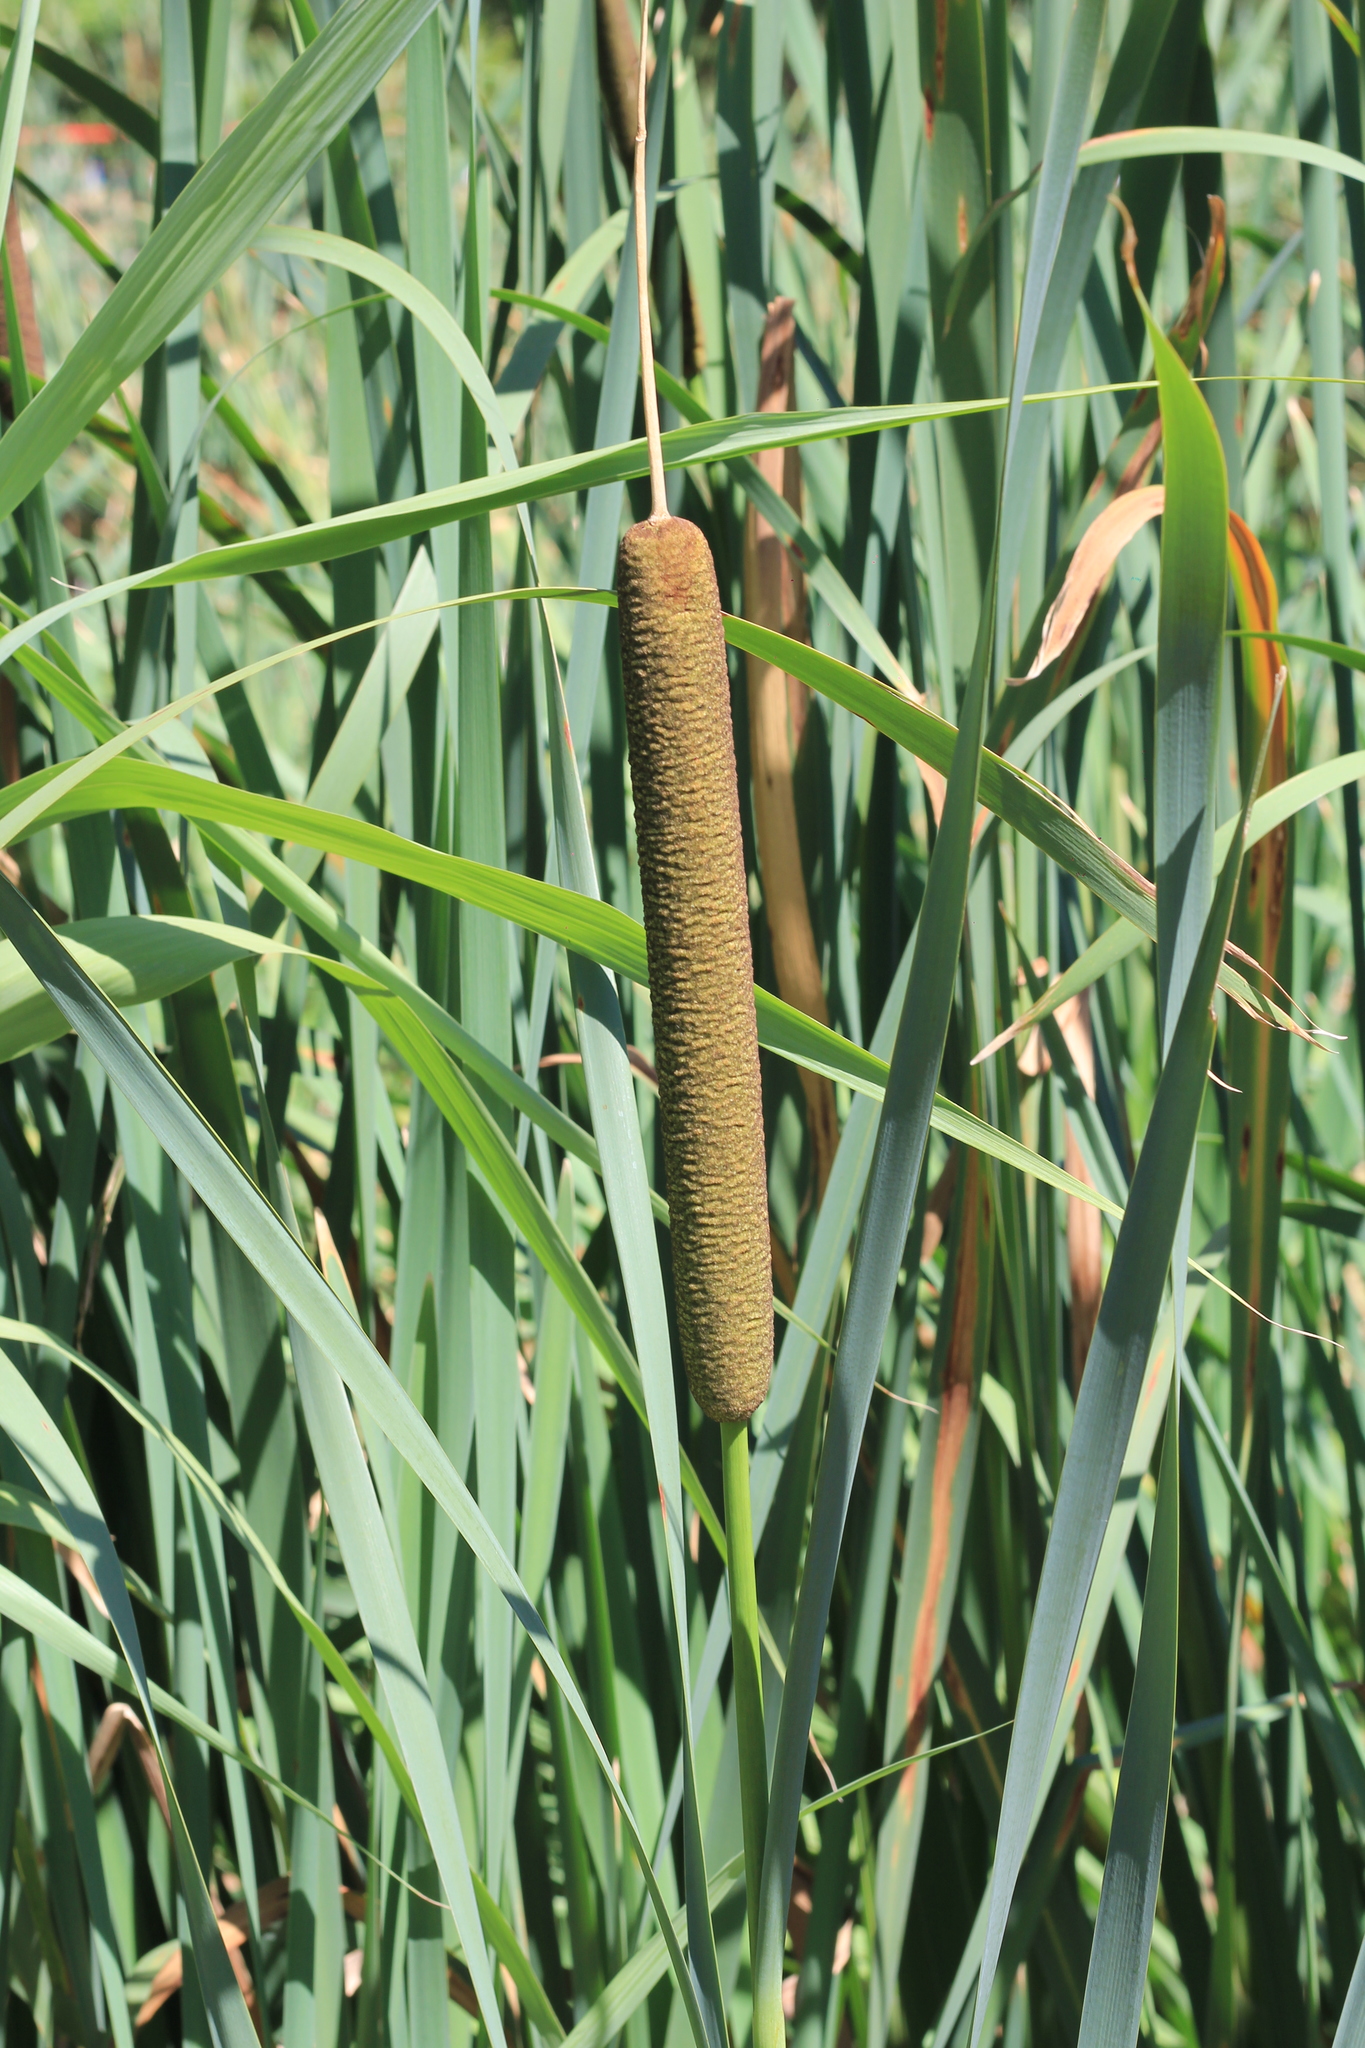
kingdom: Plantae
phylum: Tracheophyta
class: Liliopsida
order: Poales
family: Typhaceae
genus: Typha
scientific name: Typha latifolia
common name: Broadleaf cattail
